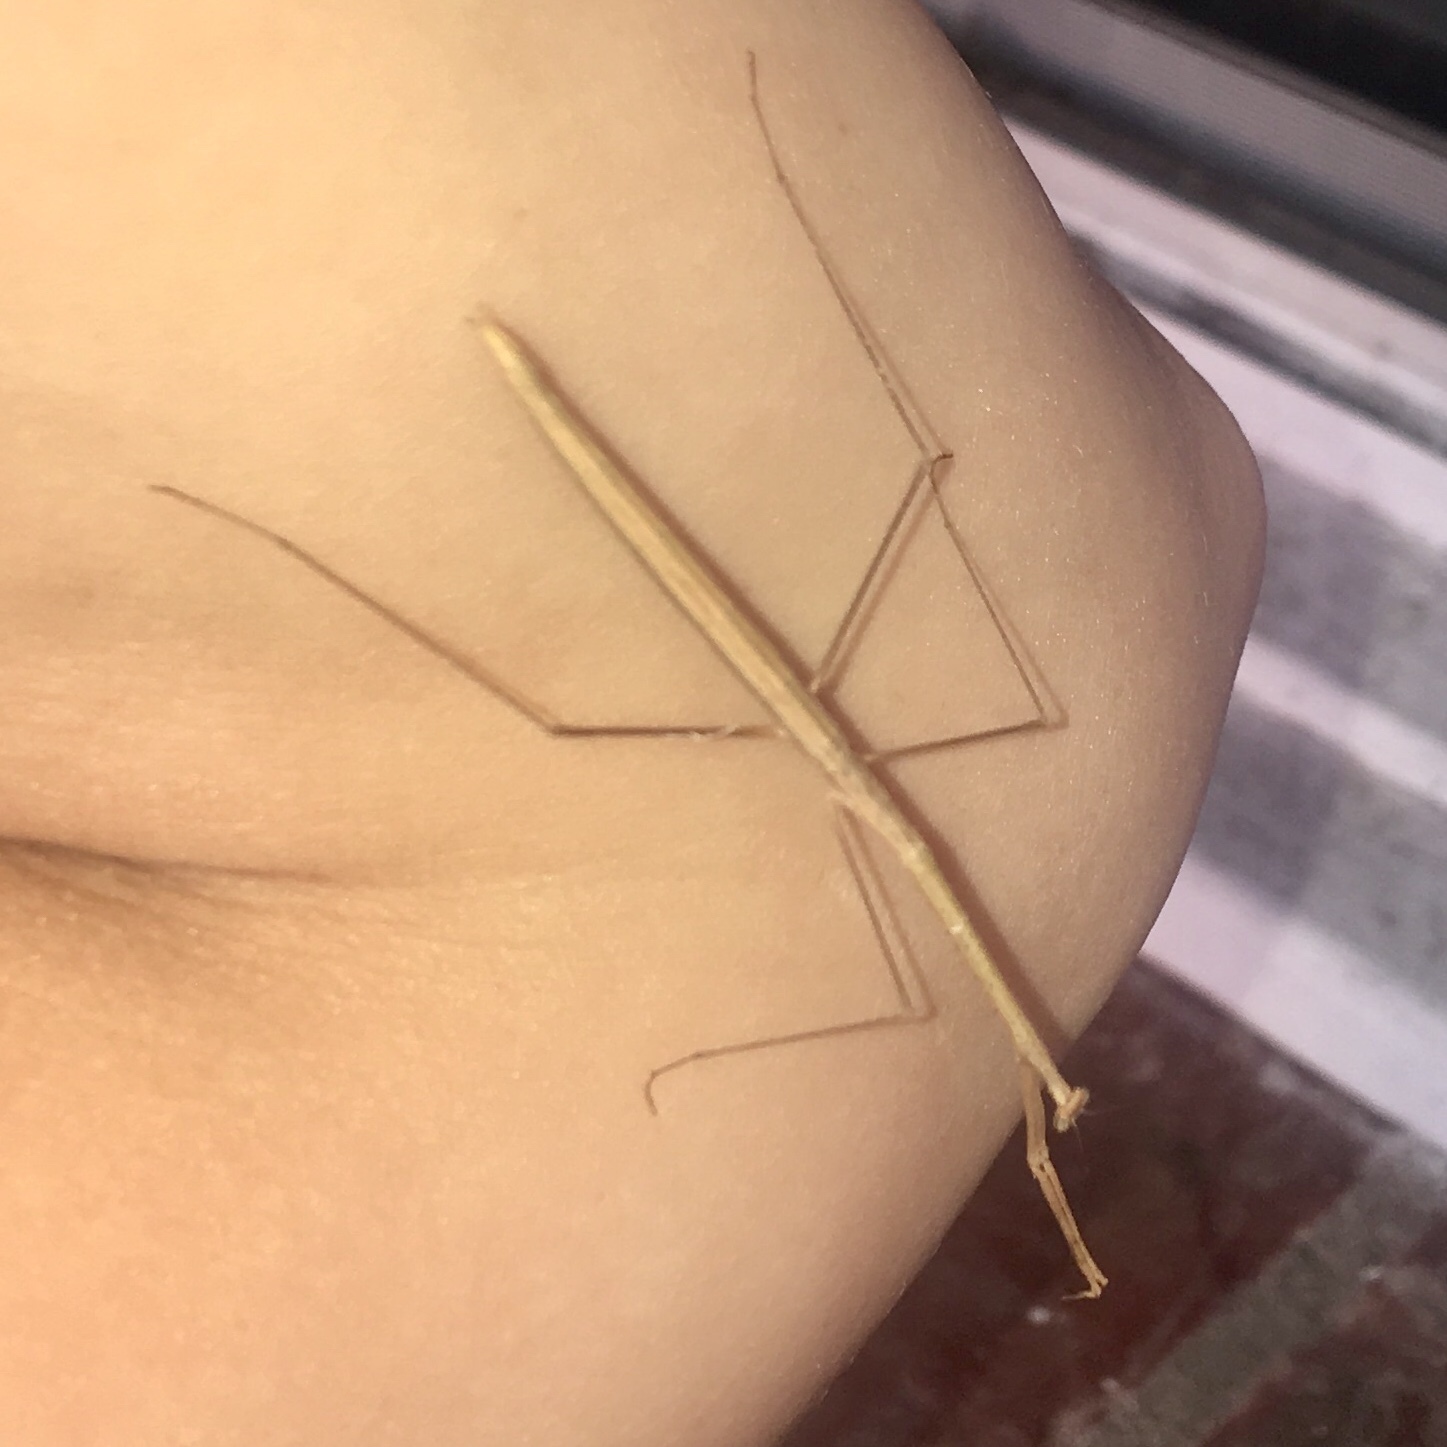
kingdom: Animalia
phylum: Arthropoda
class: Insecta
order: Mantodea
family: Thespidae
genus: Thesprotia
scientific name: Thesprotia graminis
